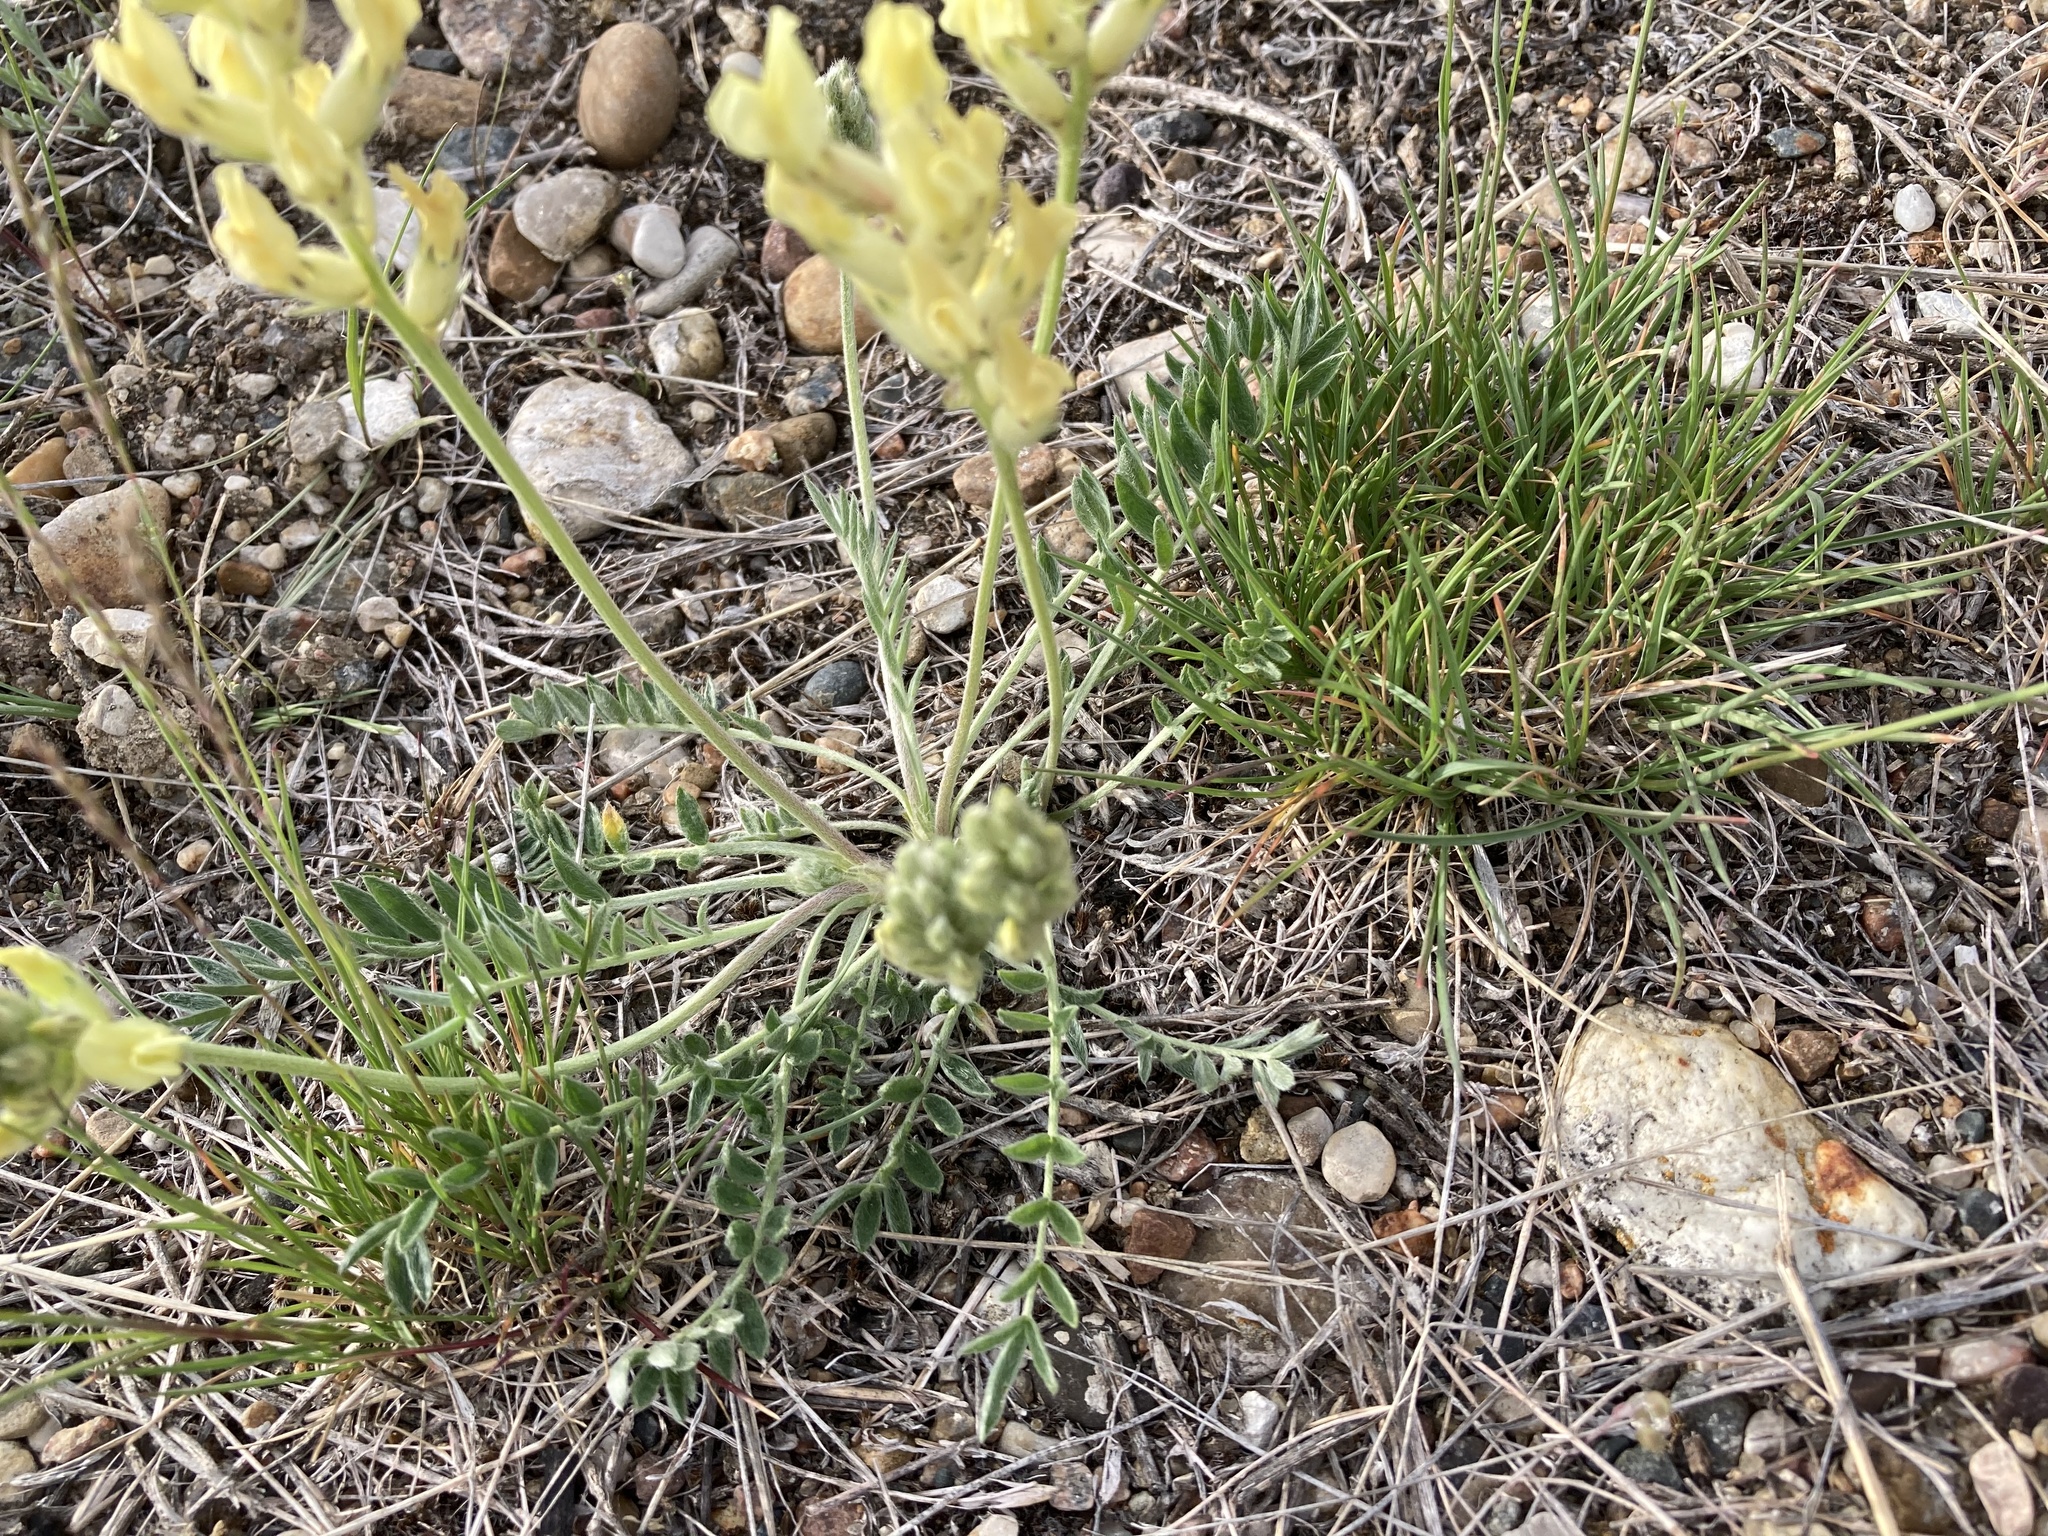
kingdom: Plantae
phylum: Tracheophyta
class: Magnoliopsida
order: Fabales
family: Fabaceae
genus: Oxytropis
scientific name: Oxytropis sericea
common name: Silky locoweed
